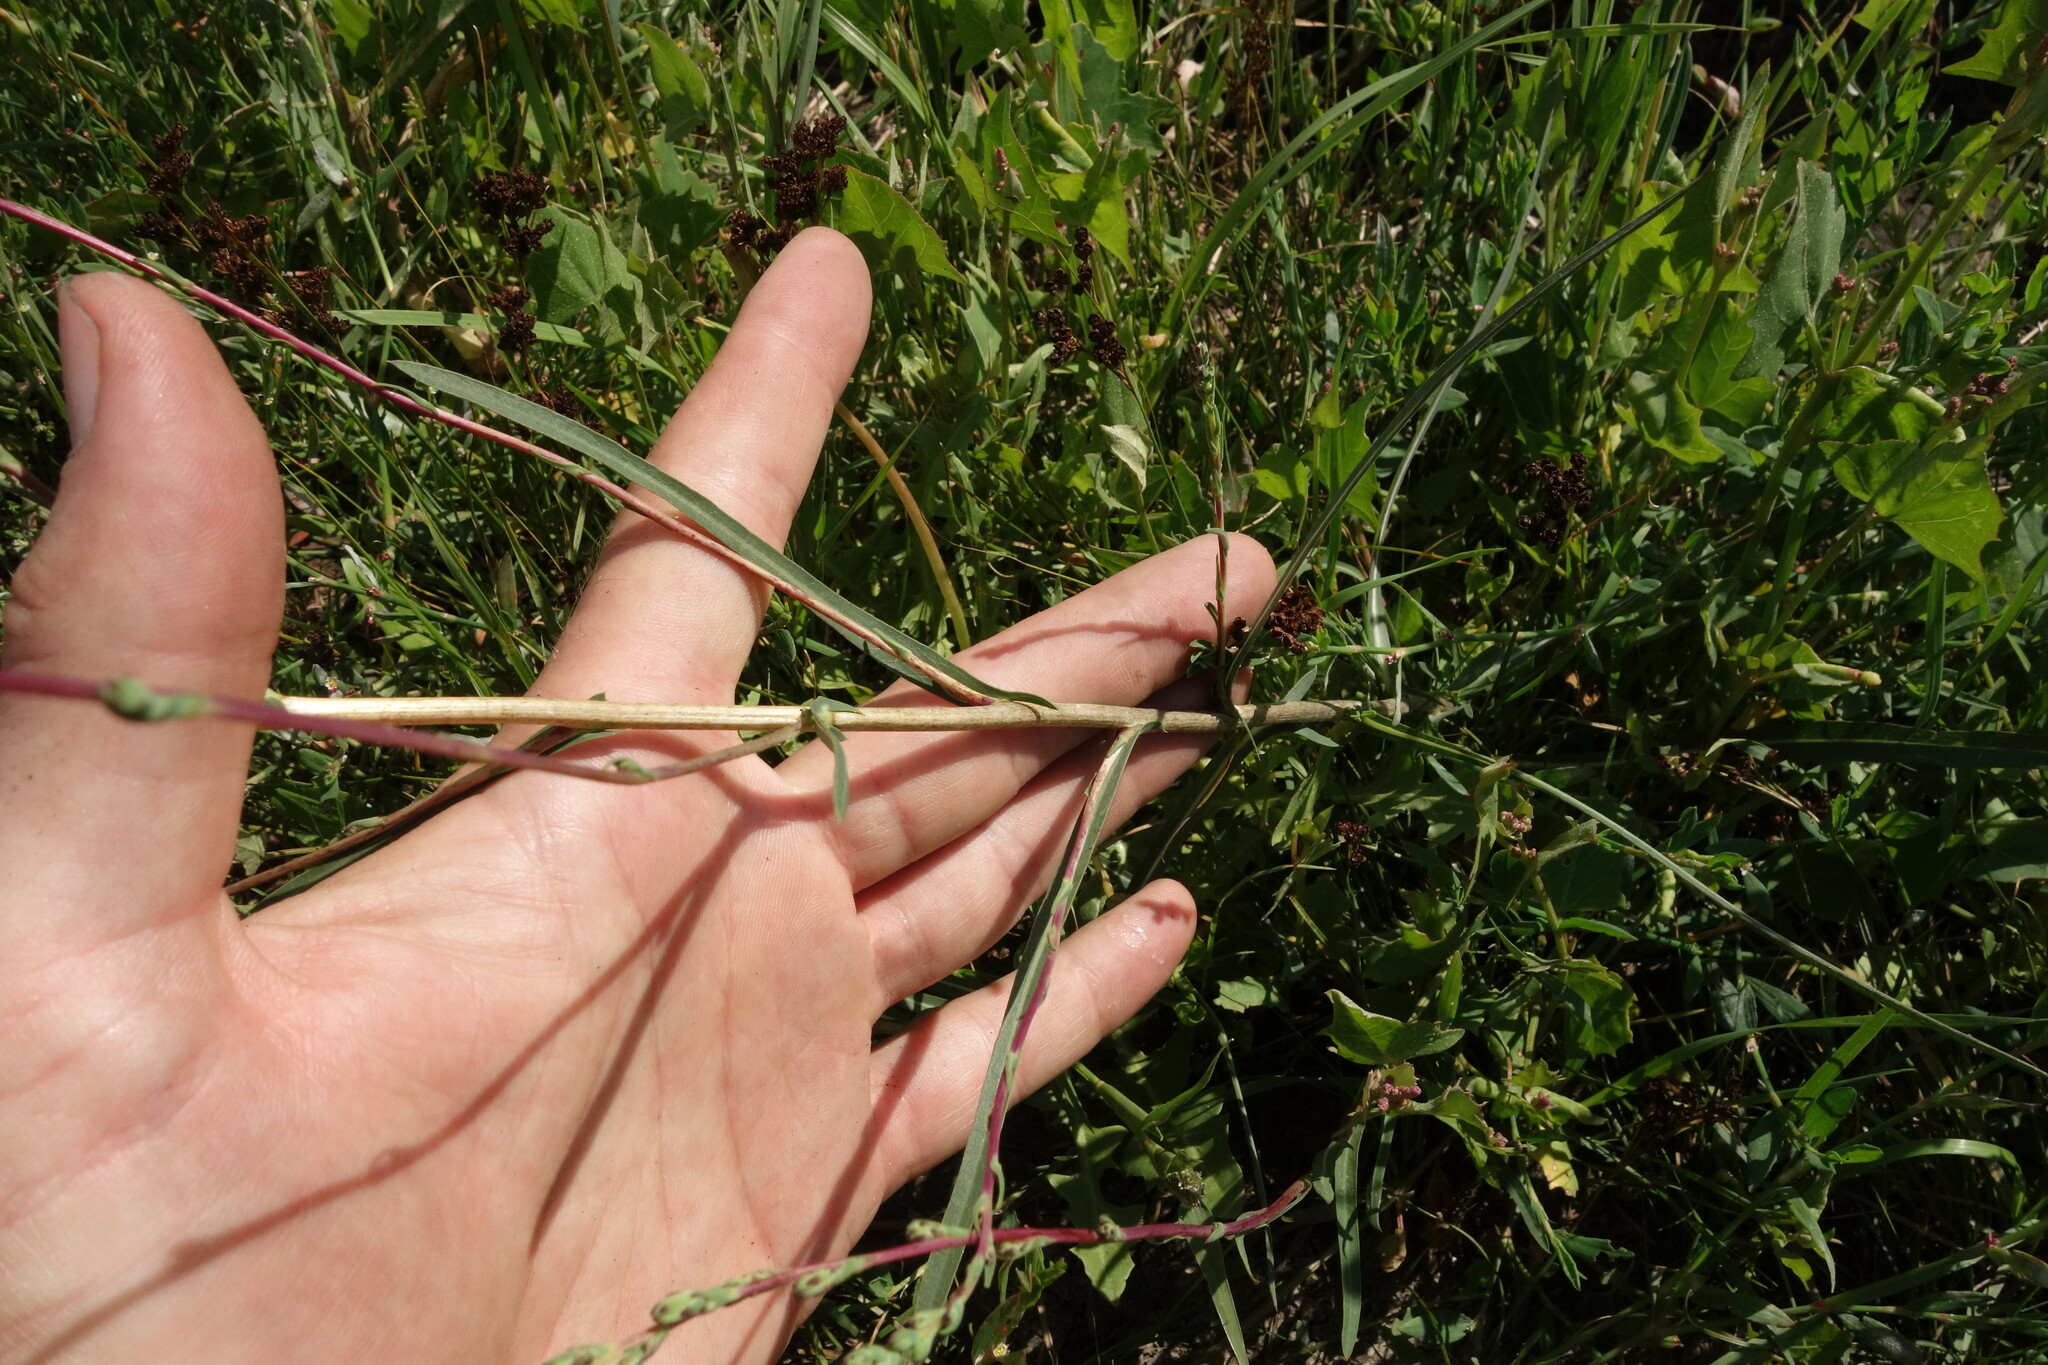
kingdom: Plantae
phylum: Tracheophyta
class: Magnoliopsida
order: Asterales
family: Asteraceae
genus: Lactuca
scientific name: Lactuca saligna
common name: Wild lettuce
